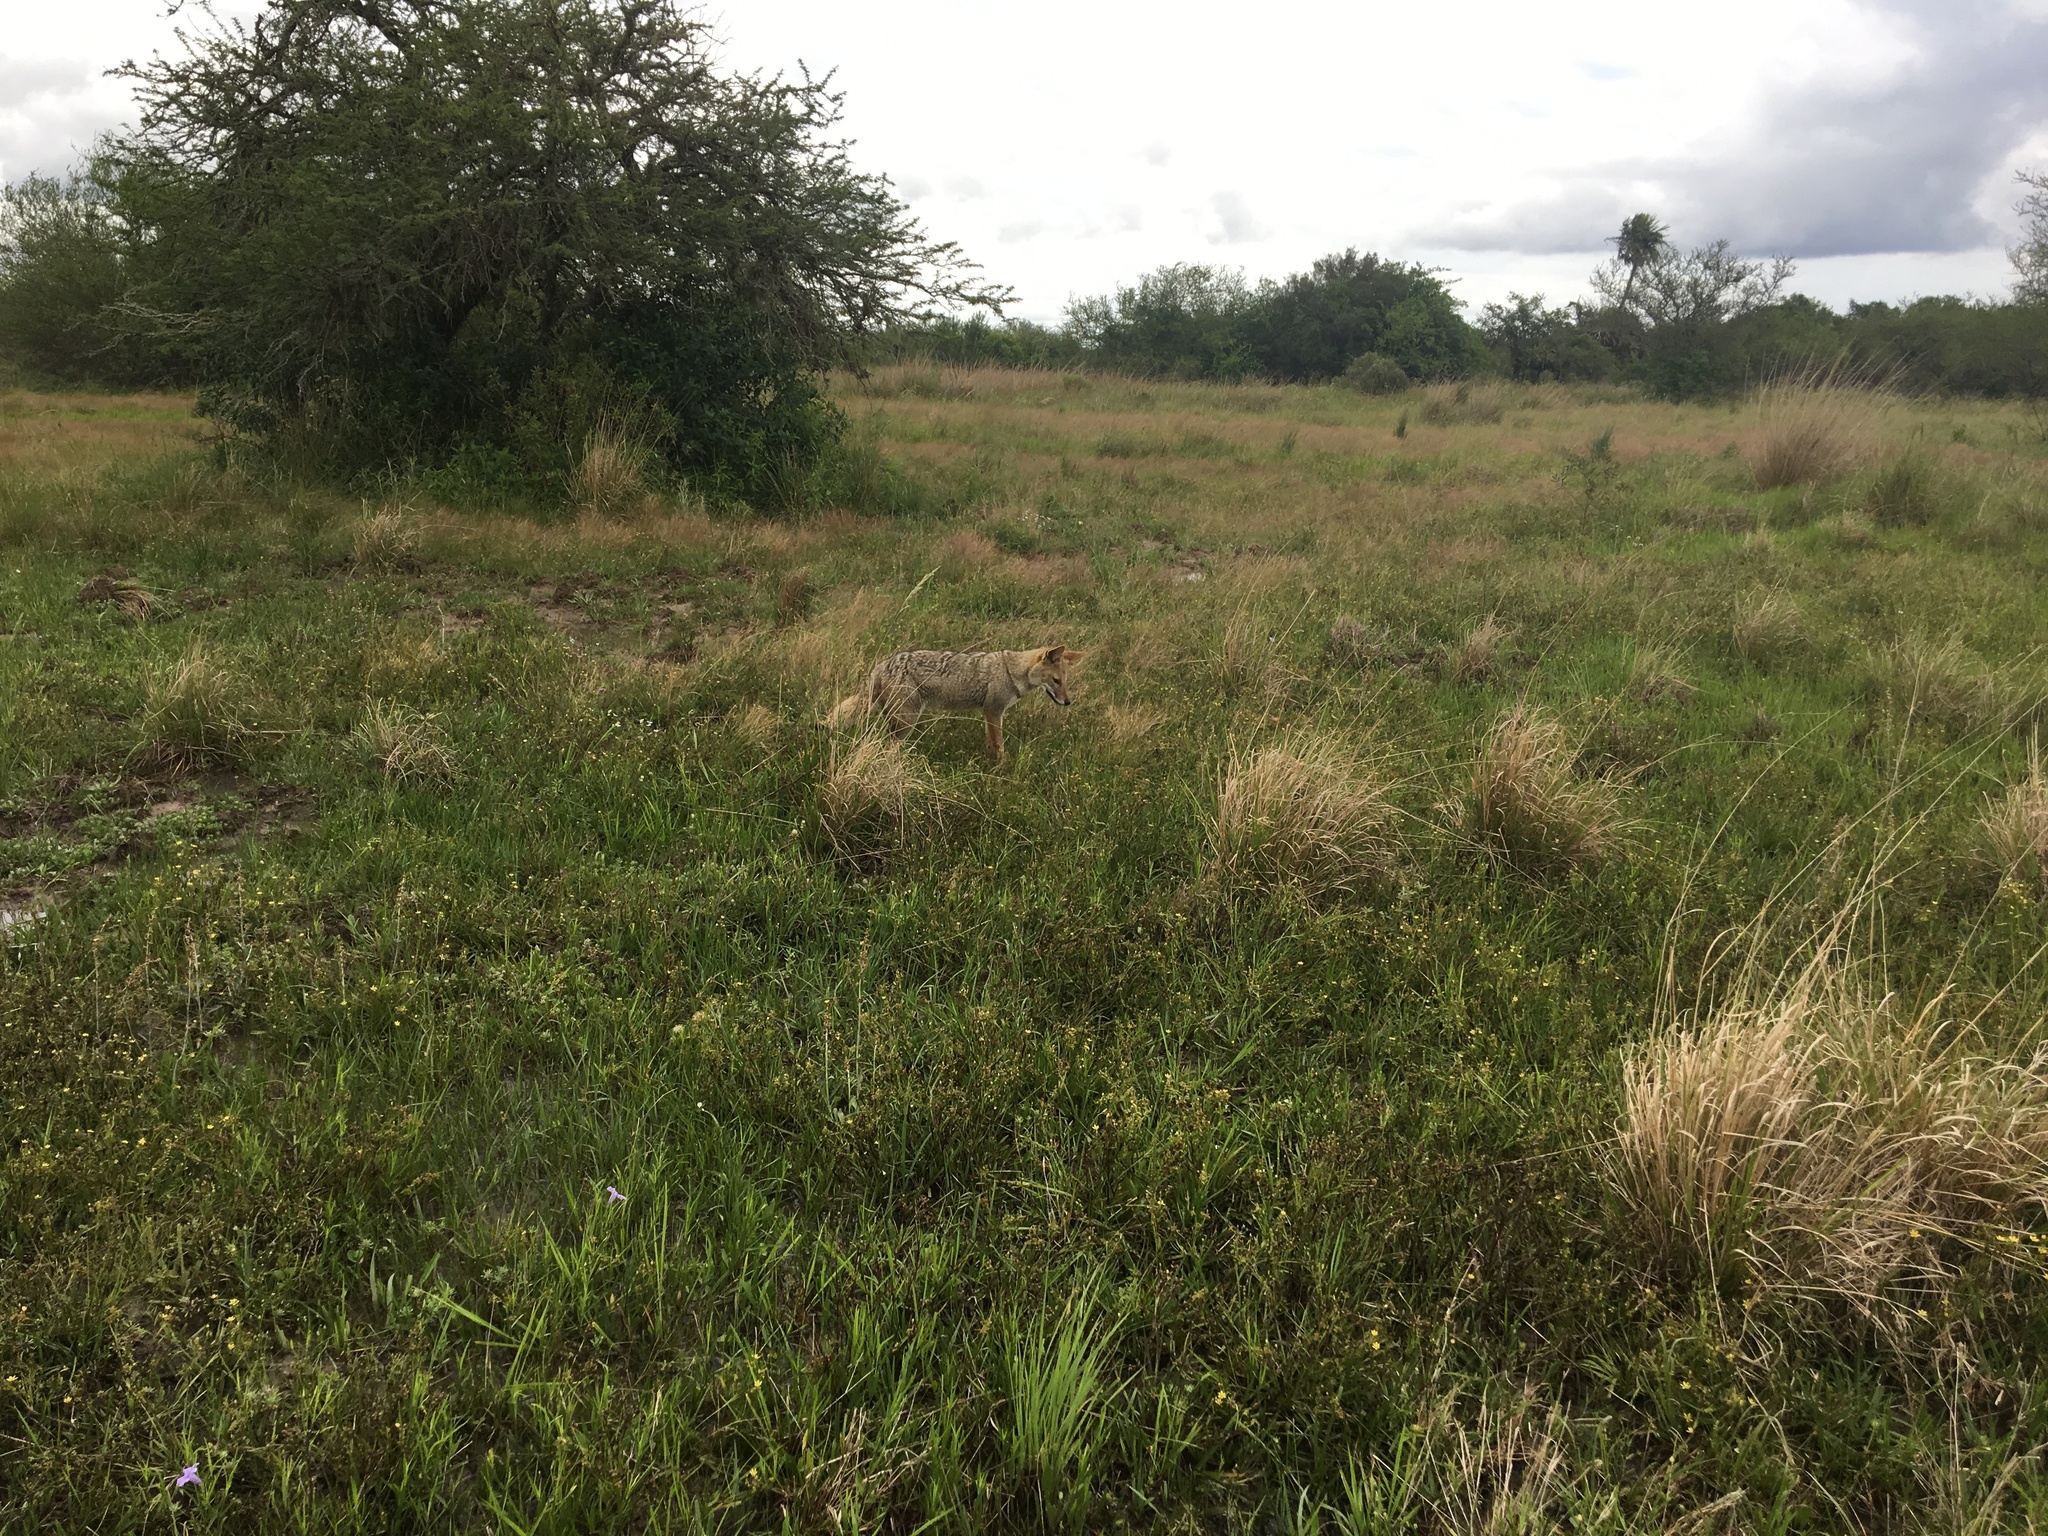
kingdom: Animalia
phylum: Chordata
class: Mammalia
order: Carnivora
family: Canidae
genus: Lycalopex
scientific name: Lycalopex gymnocercus
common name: Pampas fox
